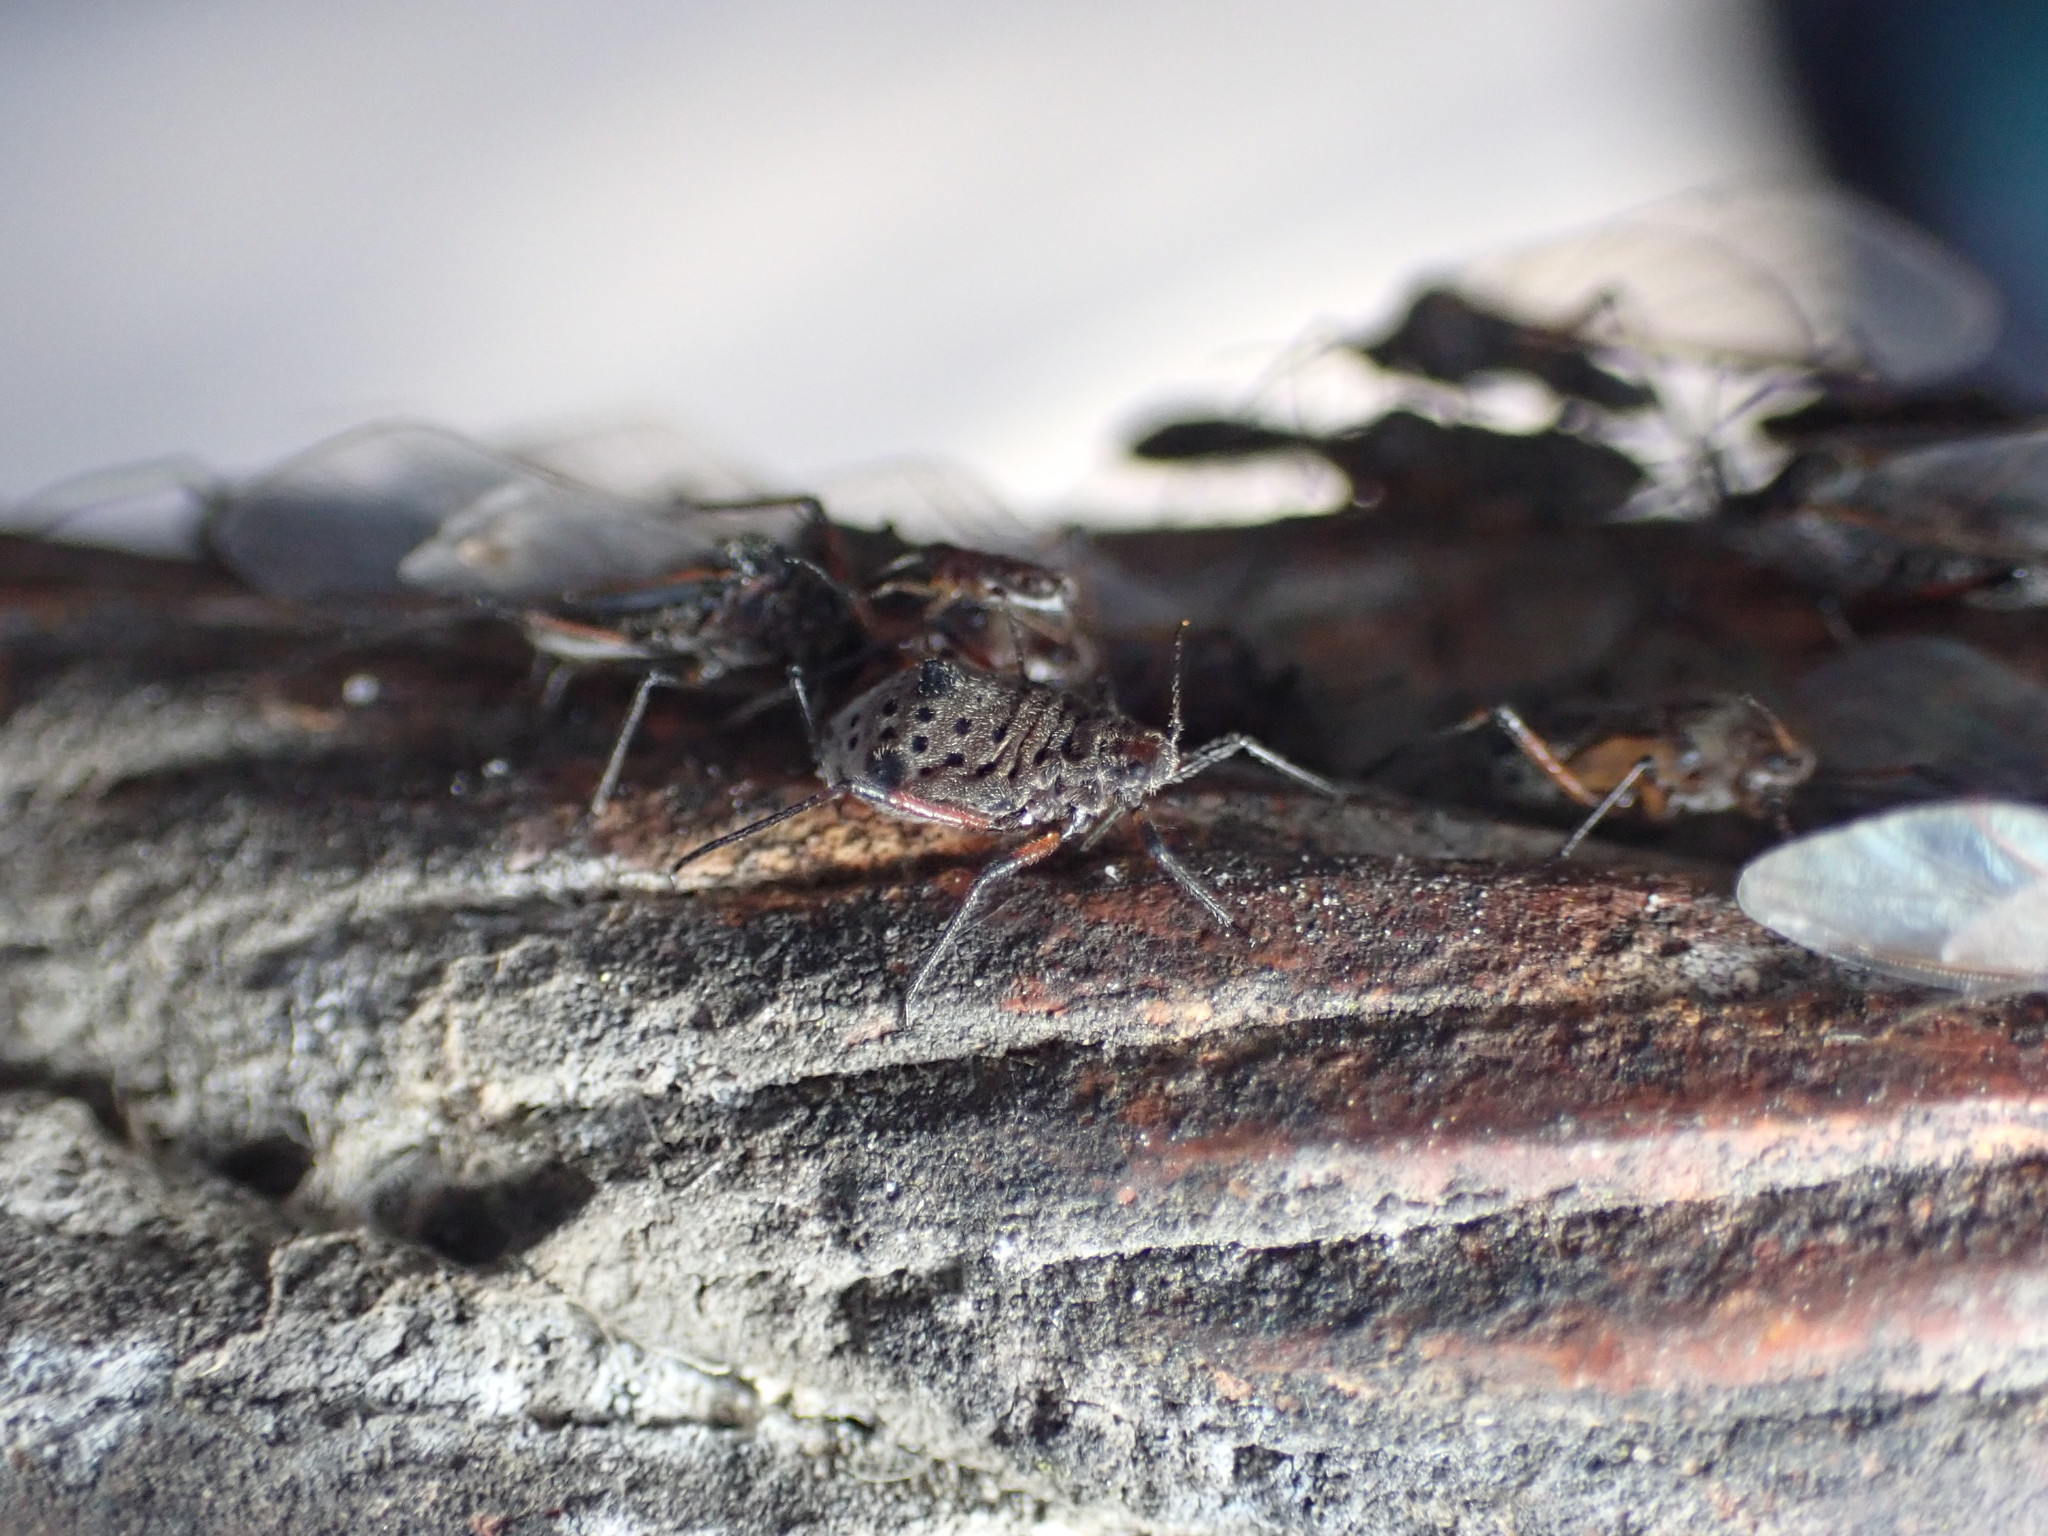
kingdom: Animalia
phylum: Arthropoda
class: Insecta
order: Hemiptera
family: Aphididae
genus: Tuberolachnus
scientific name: Tuberolachnus salignus
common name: Giant willow aphid
